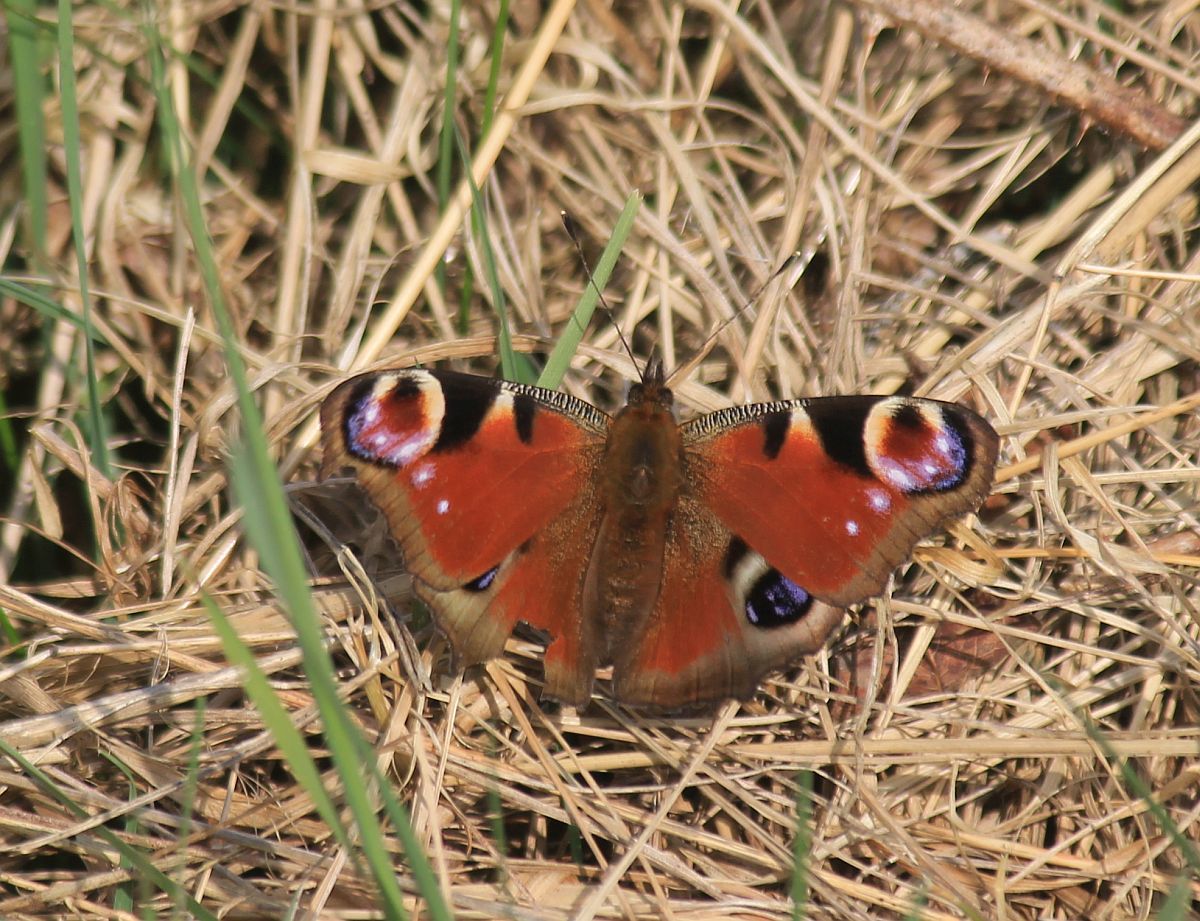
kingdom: Animalia
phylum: Arthropoda
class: Insecta
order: Lepidoptera
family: Nymphalidae
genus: Aglais
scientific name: Aglais io
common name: Peacock
